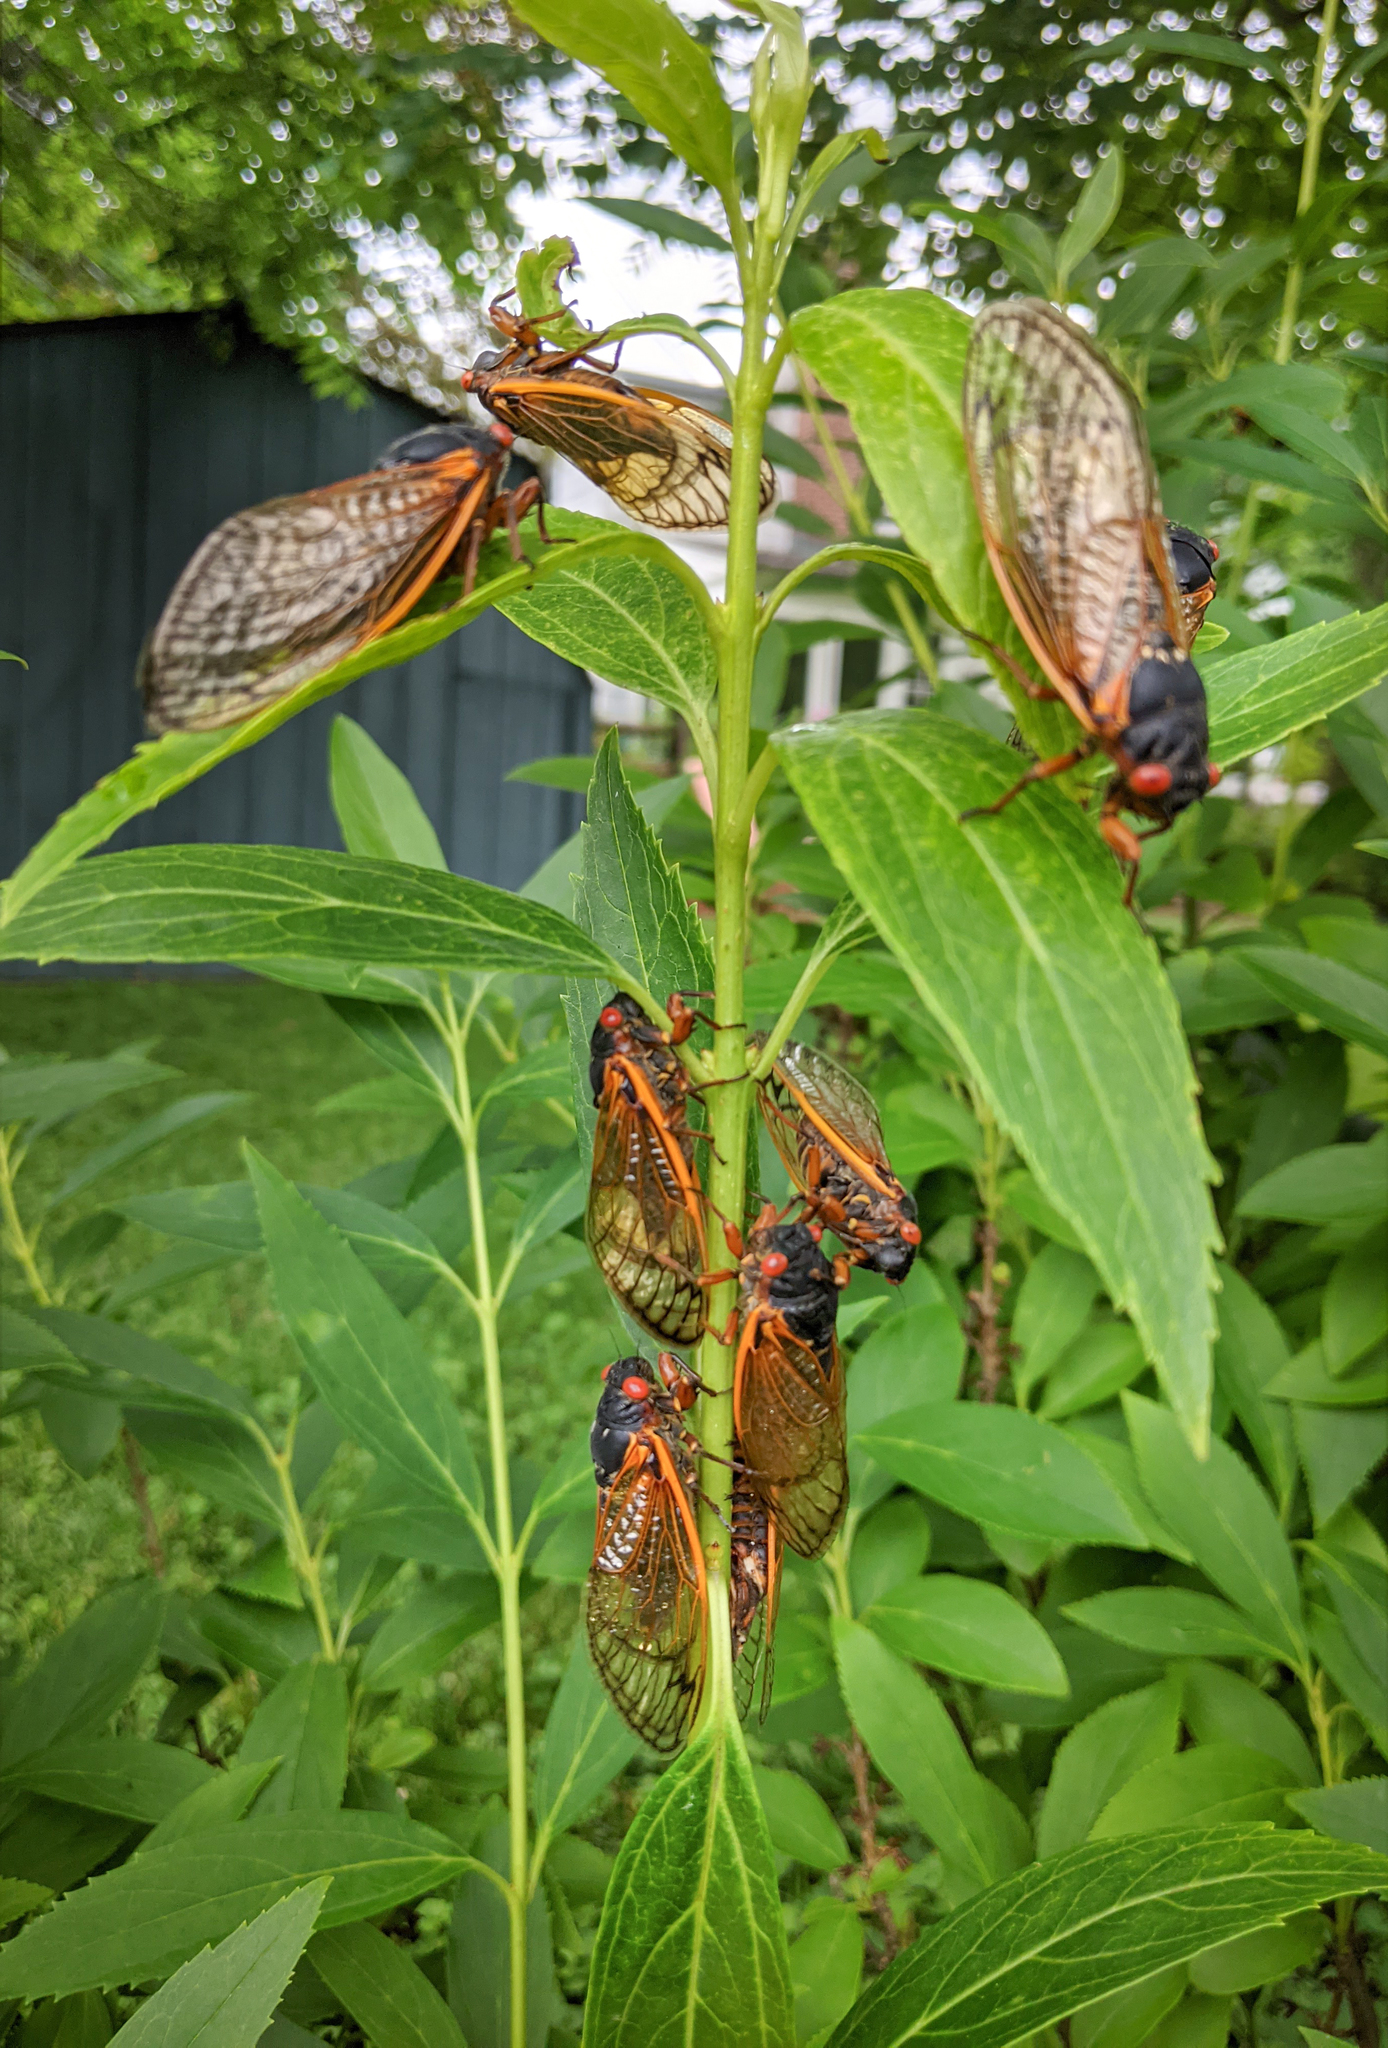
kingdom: Animalia
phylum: Arthropoda
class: Insecta
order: Hemiptera
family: Cicadidae
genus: Magicicada
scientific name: Magicicada septendecim
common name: Periodical cicada
